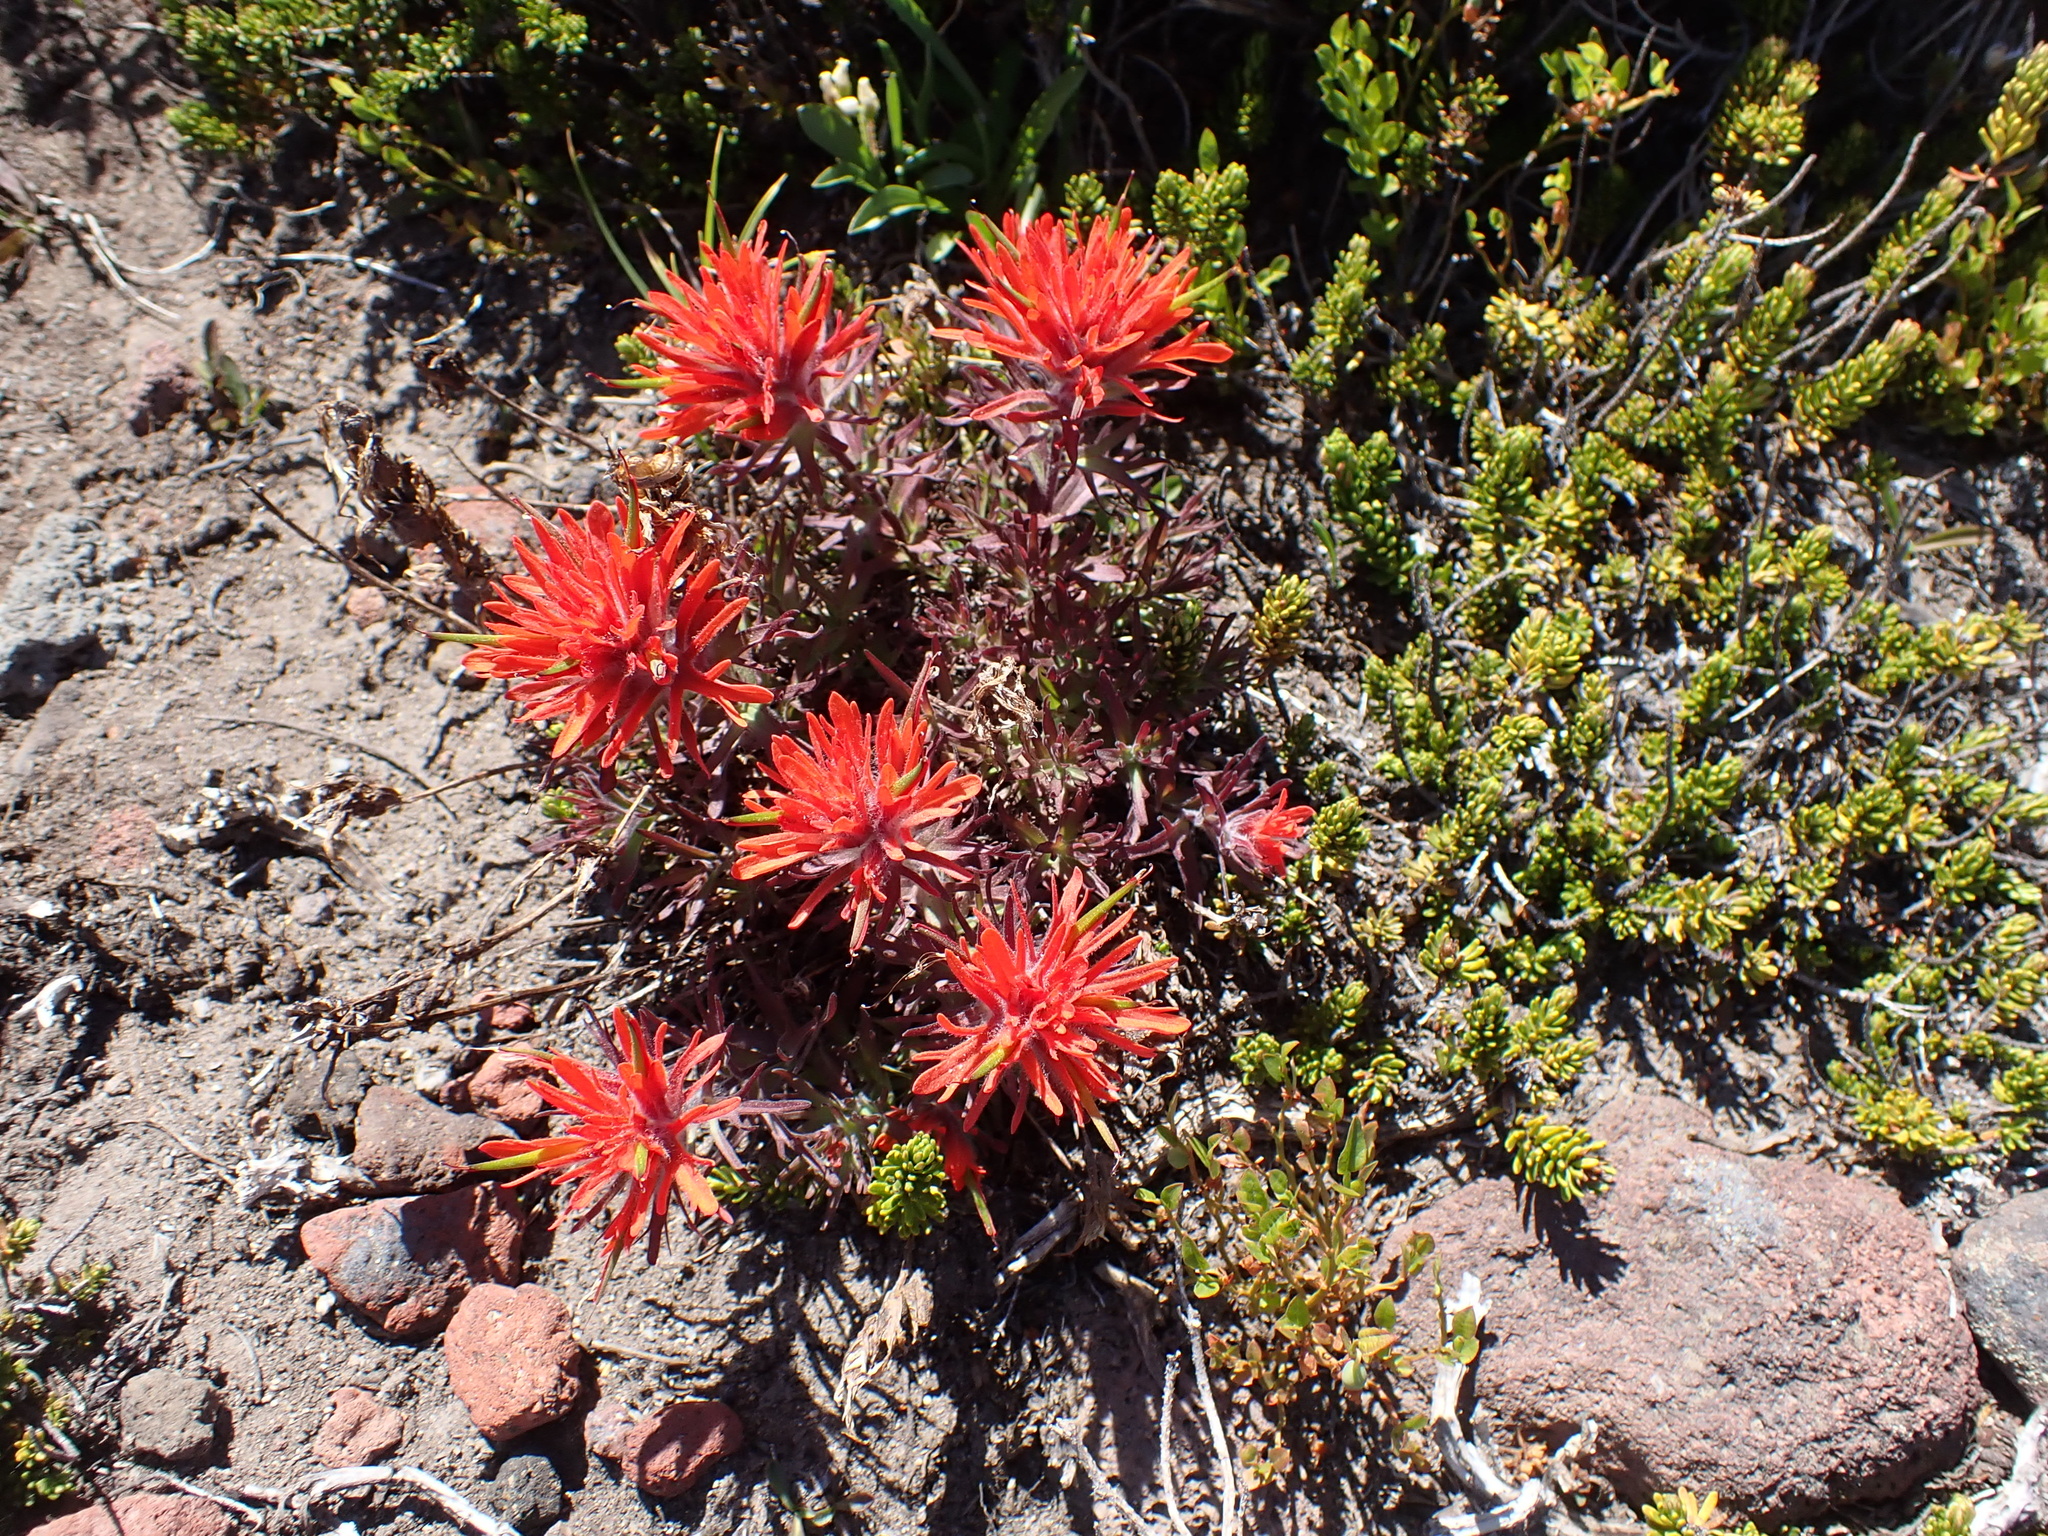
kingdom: Plantae
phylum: Tracheophyta
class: Magnoliopsida
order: Lamiales
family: Orobanchaceae
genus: Castilleja
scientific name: Castilleja rupicola
